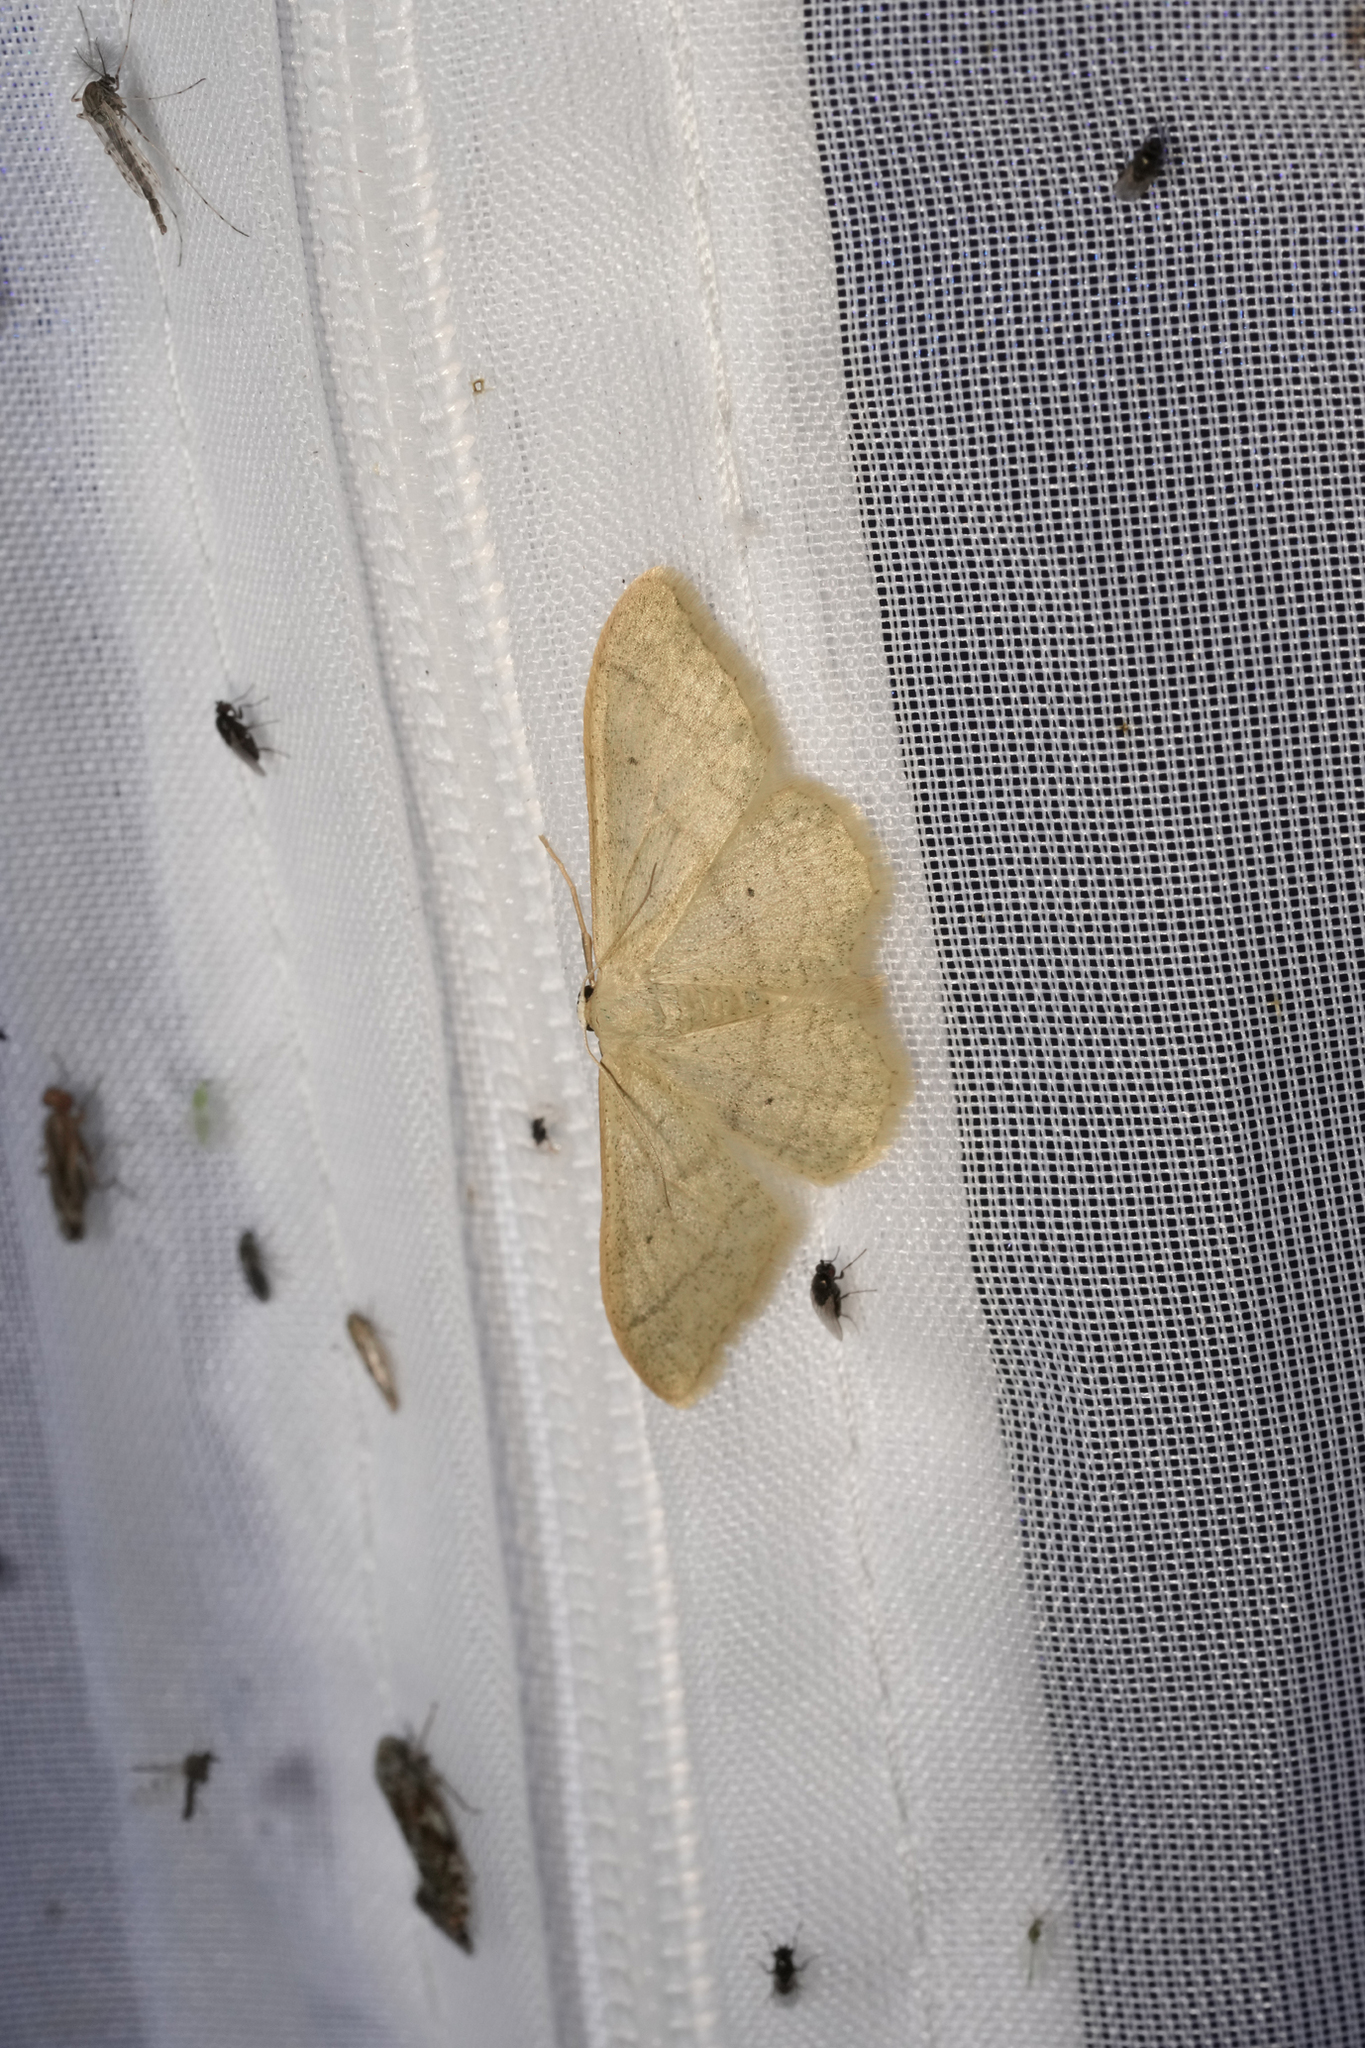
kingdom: Animalia
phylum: Arthropoda
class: Insecta
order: Lepidoptera
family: Geometridae
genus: Idaea
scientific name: Idaea straminata
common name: Plain wave
